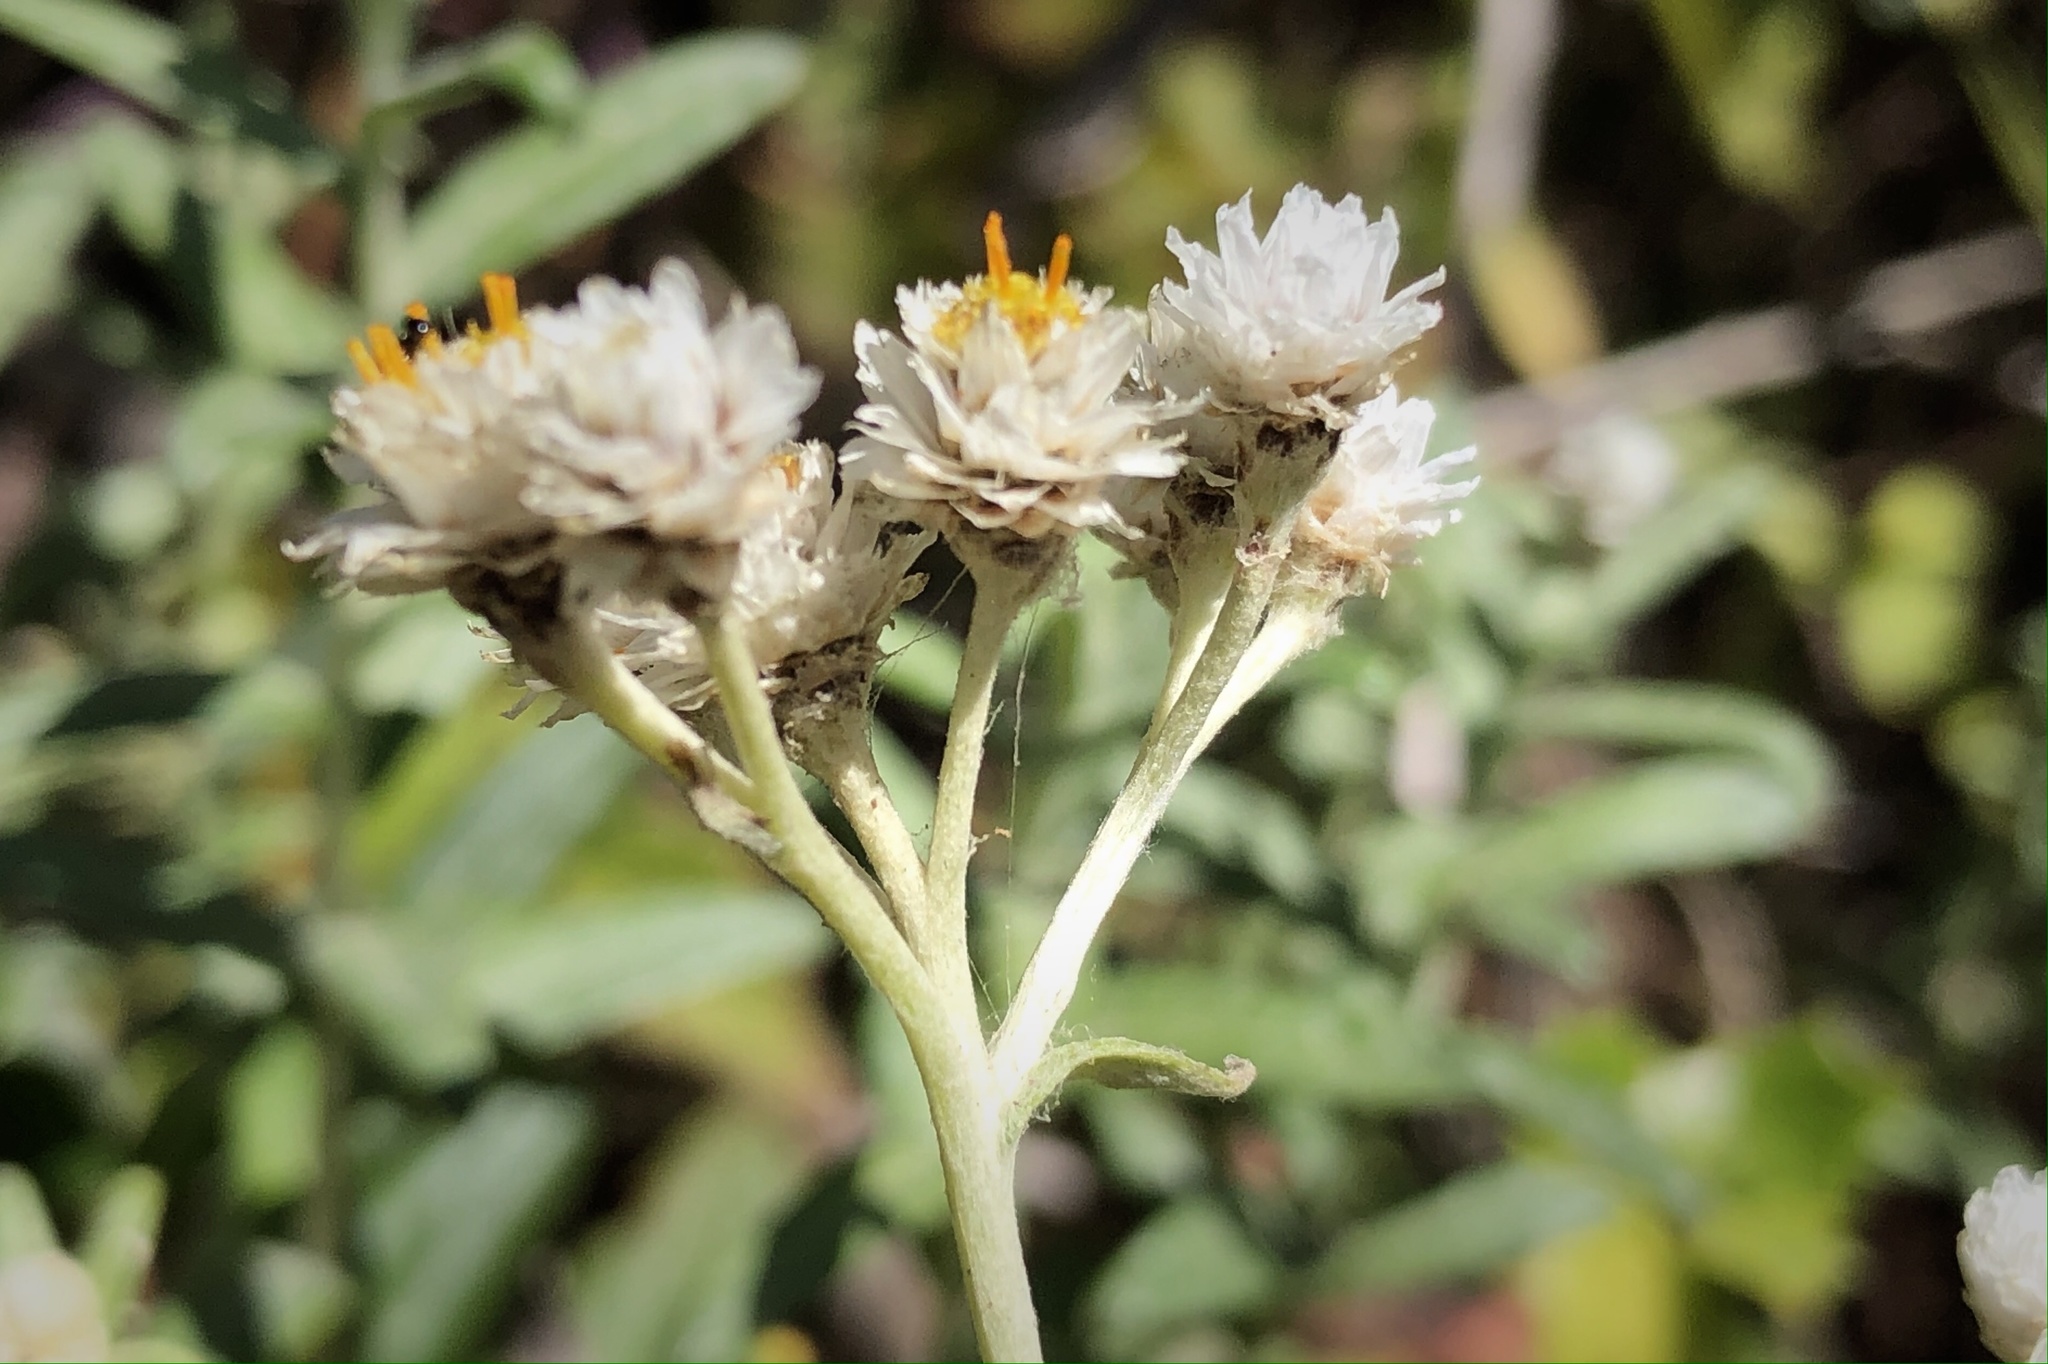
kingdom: Plantae
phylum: Tracheophyta
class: Magnoliopsida
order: Asterales
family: Asteraceae
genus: Anaphalis
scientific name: Anaphalis margaritacea
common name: Pearly everlasting
